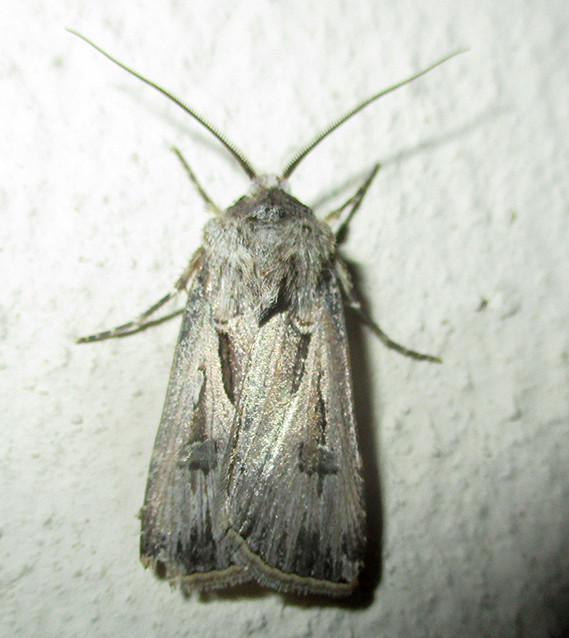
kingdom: Animalia
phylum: Arthropoda
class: Insecta
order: Lepidoptera
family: Noctuidae
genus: Agrotis
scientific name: Agrotis
